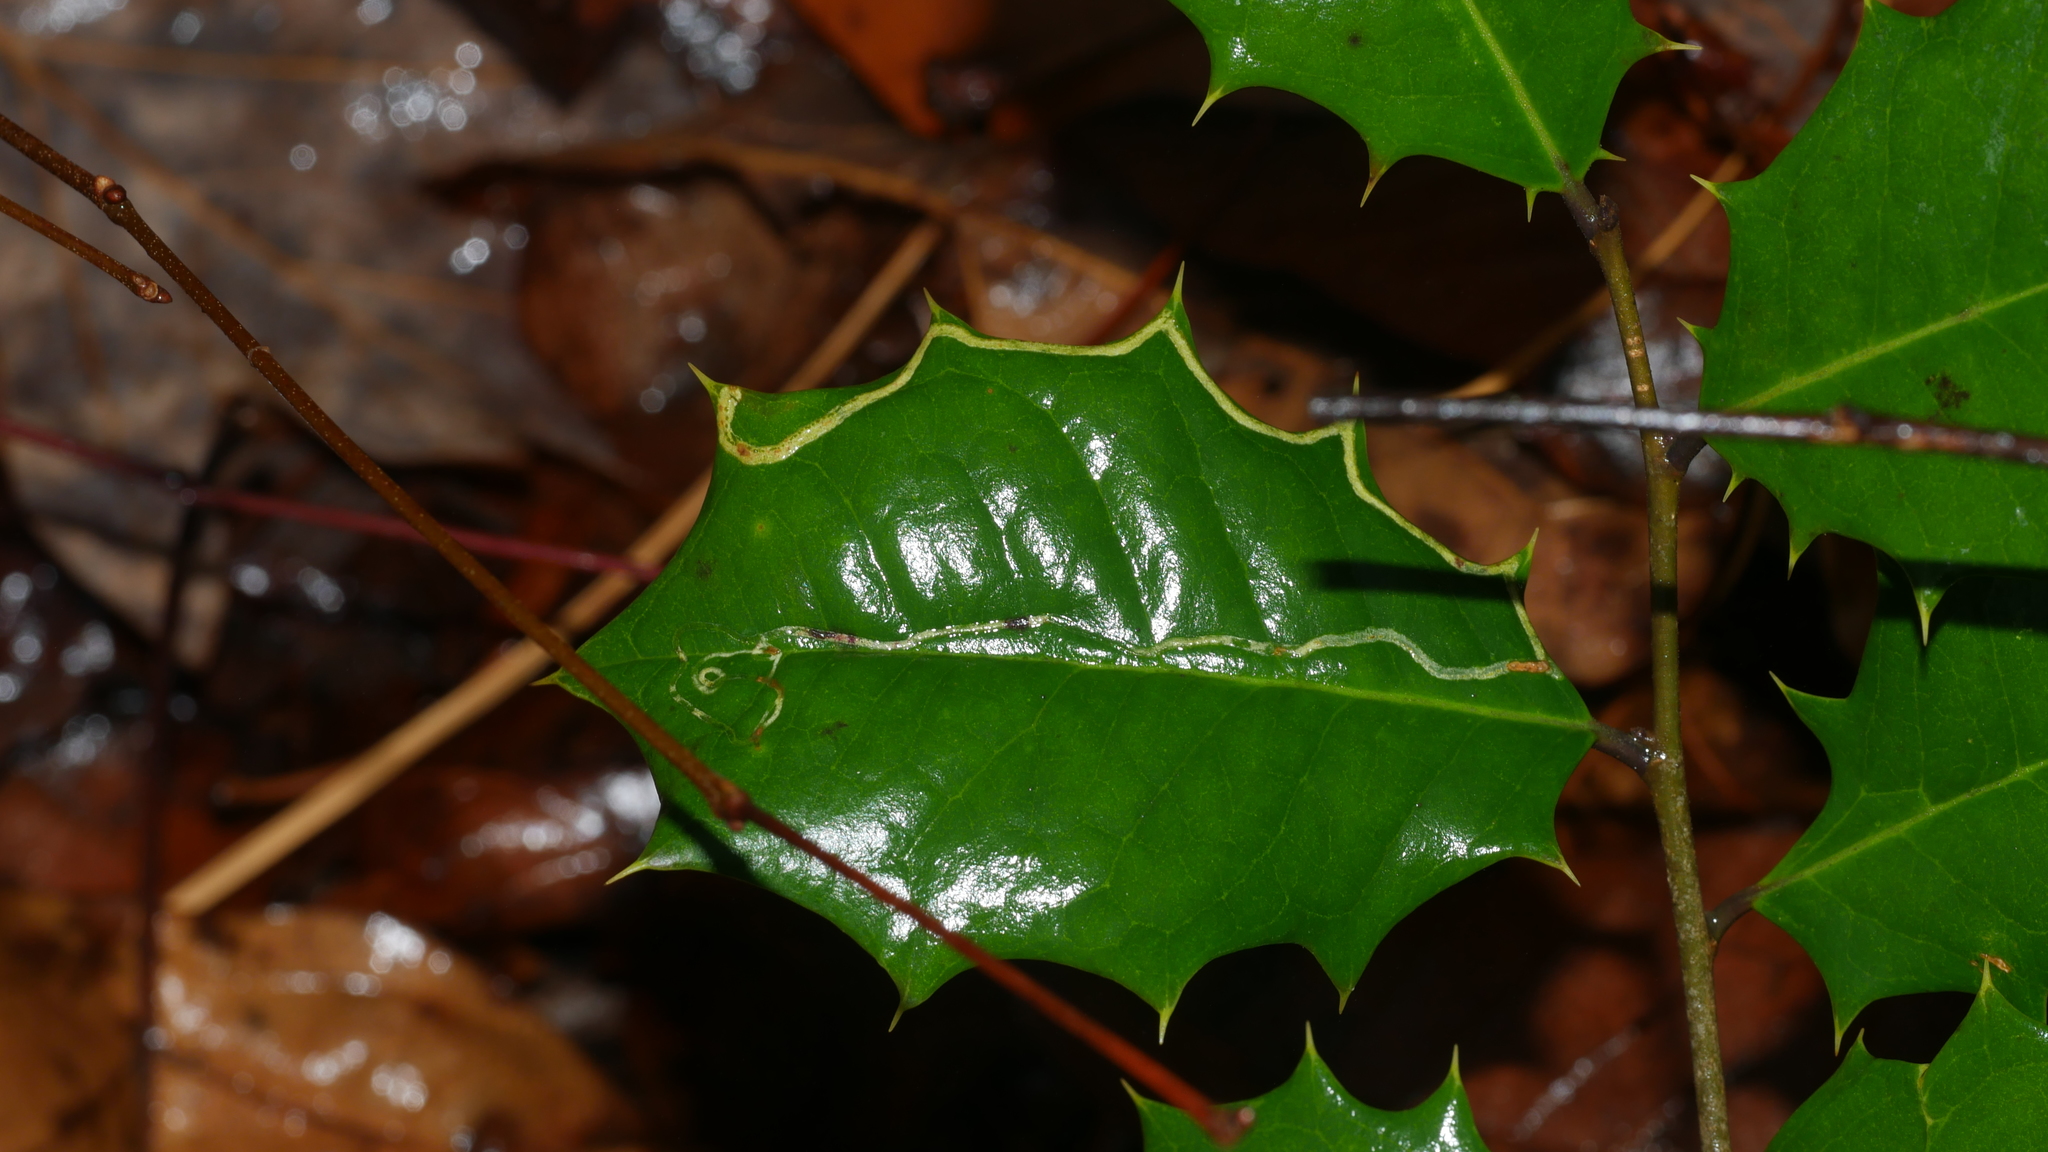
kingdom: Animalia
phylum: Arthropoda
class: Insecta
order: Diptera
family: Agromyzidae
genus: Phytomyza
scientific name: Phytomyza opacae
